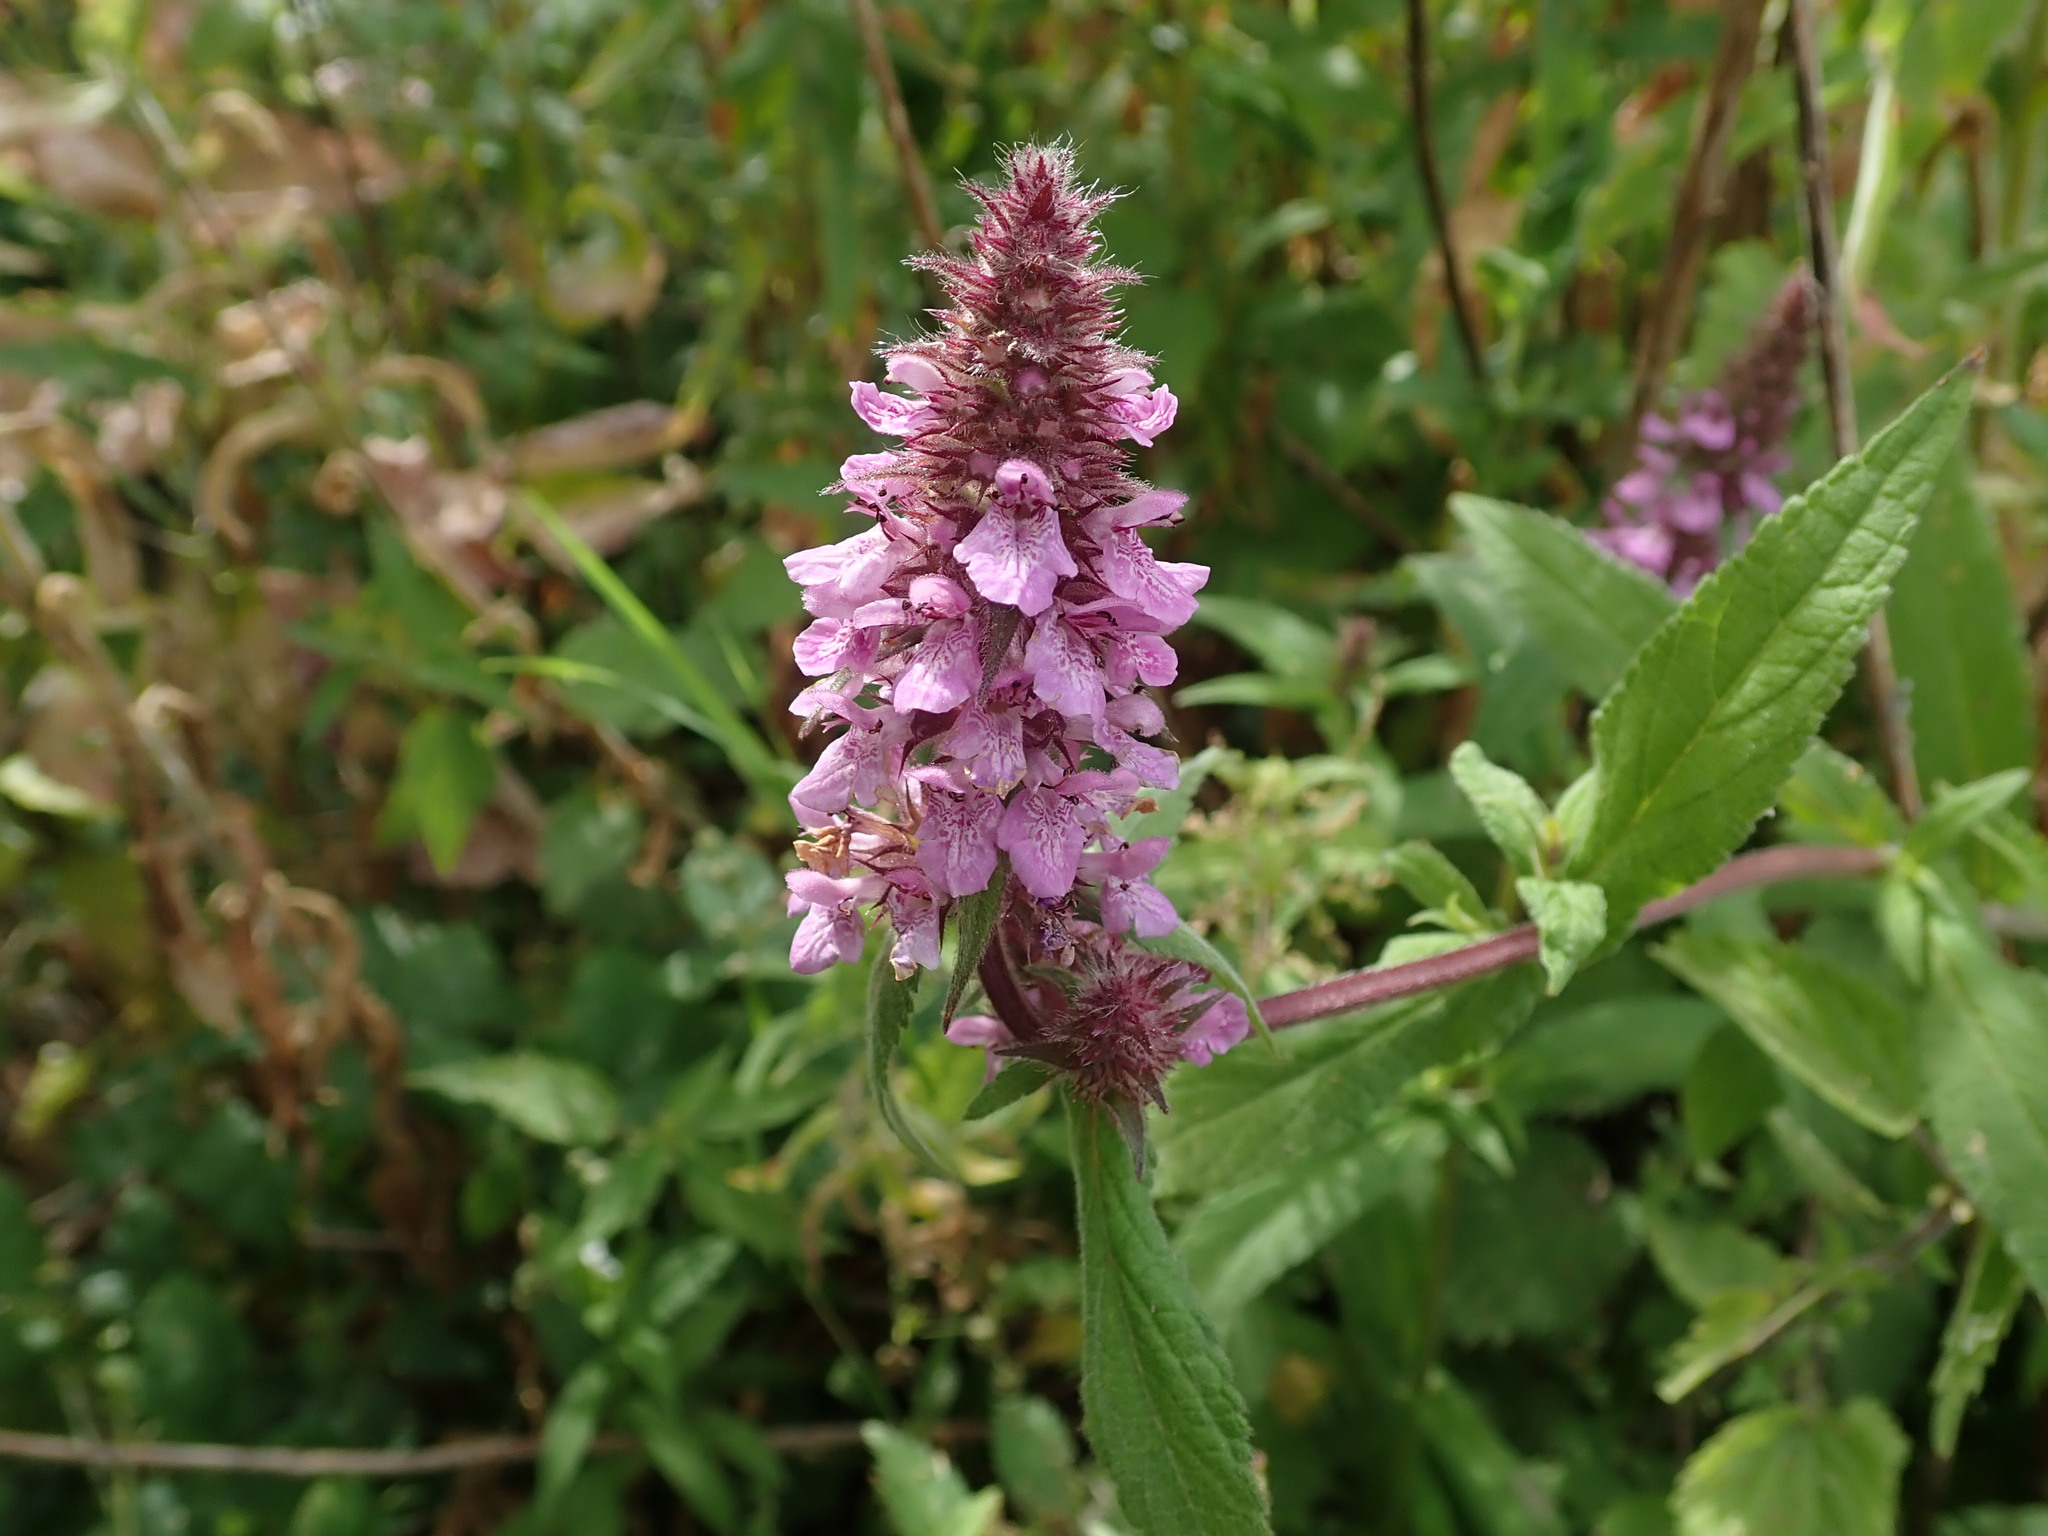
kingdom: Plantae
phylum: Tracheophyta
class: Magnoliopsida
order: Lamiales
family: Lamiaceae
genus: Stachys
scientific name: Stachys palustris
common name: Marsh woundwort
